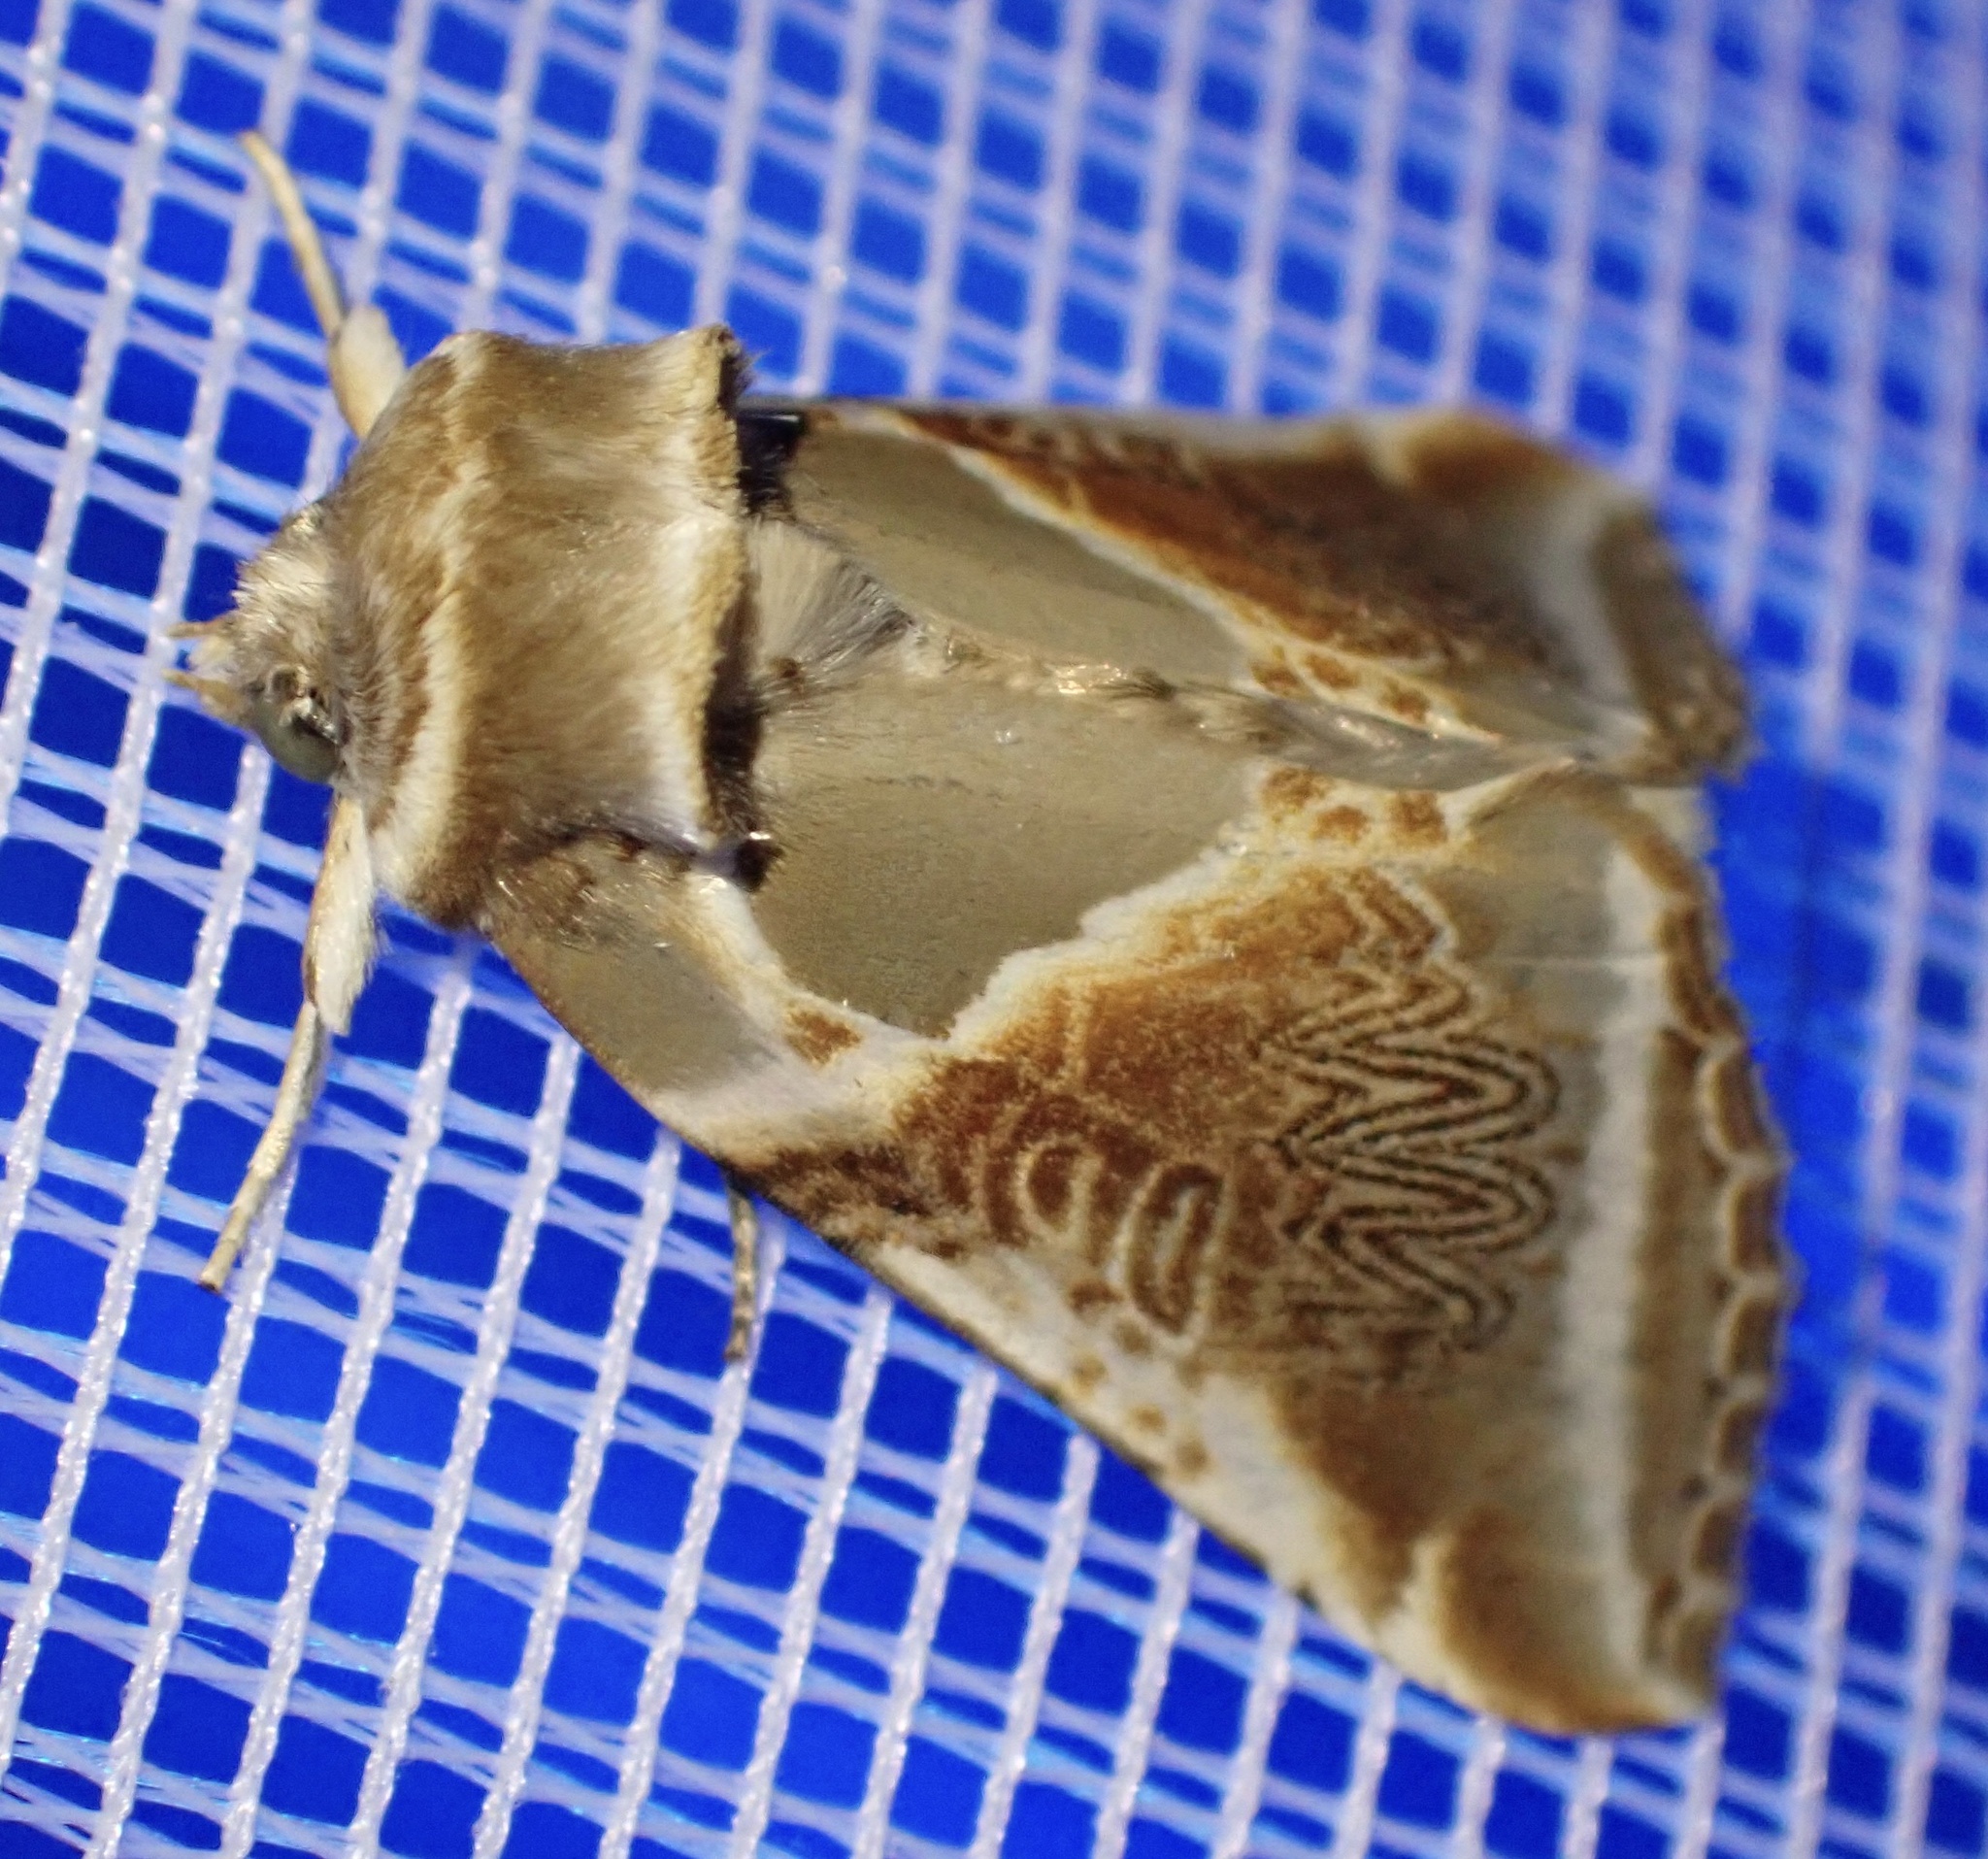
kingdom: Animalia
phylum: Arthropoda
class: Insecta
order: Lepidoptera
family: Drepanidae
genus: Habrosyne
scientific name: Habrosyne pyritoides
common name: Buff arches
